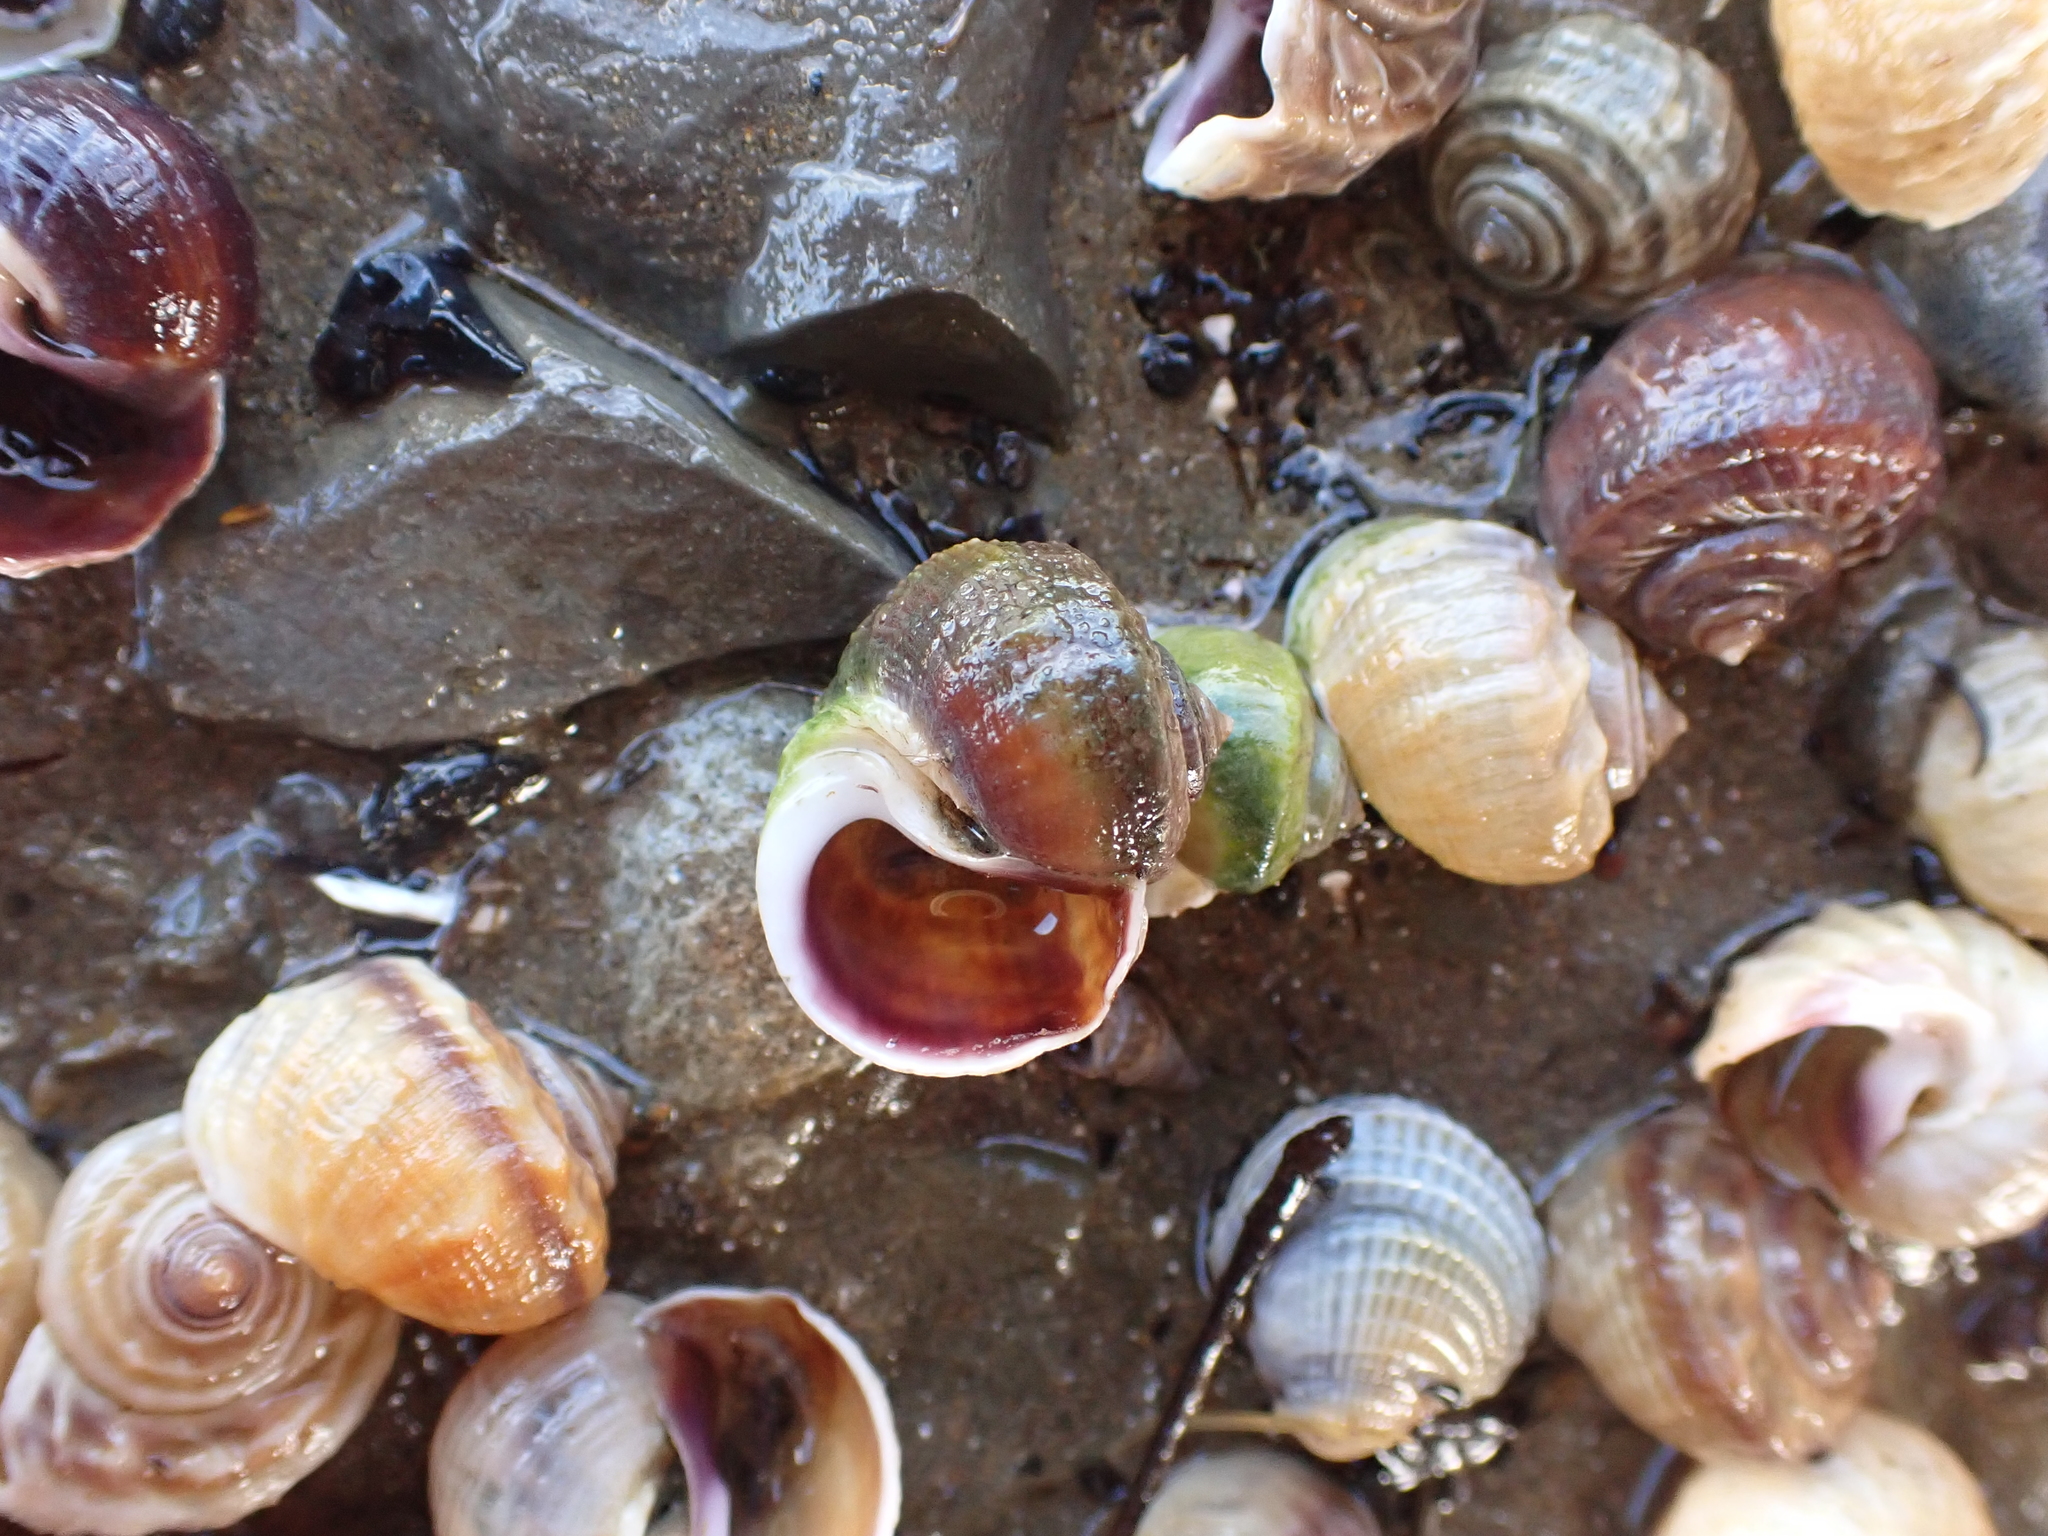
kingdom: Animalia
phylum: Mollusca
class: Gastropoda
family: Amphibolidae
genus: Amphibola
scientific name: Amphibola crenata
